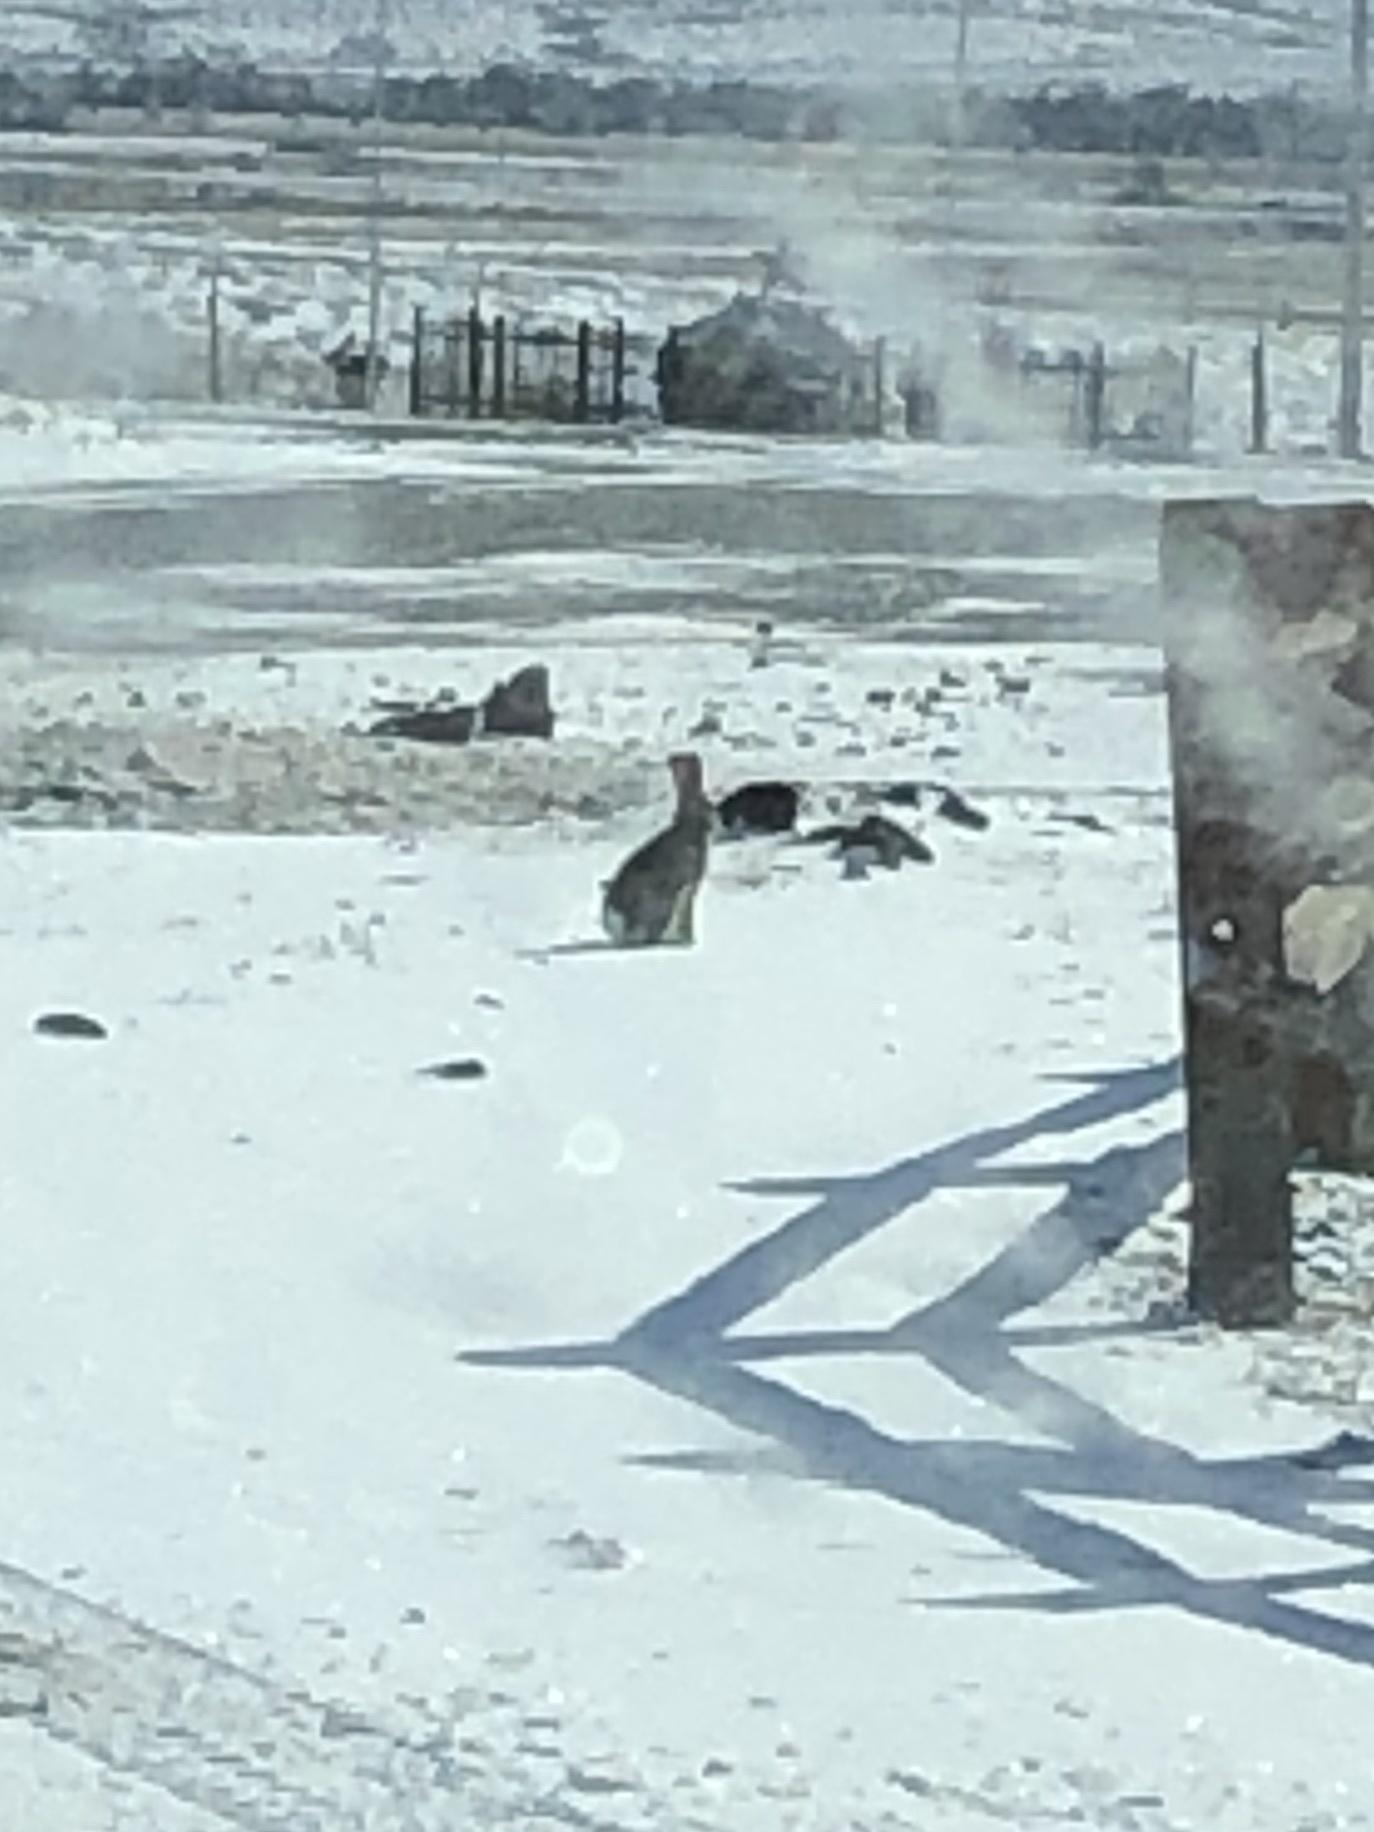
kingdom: Animalia
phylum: Chordata
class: Mammalia
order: Lagomorpha
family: Leporidae
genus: Sylvilagus
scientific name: Sylvilagus nuttallii
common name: Mountain cottontail
